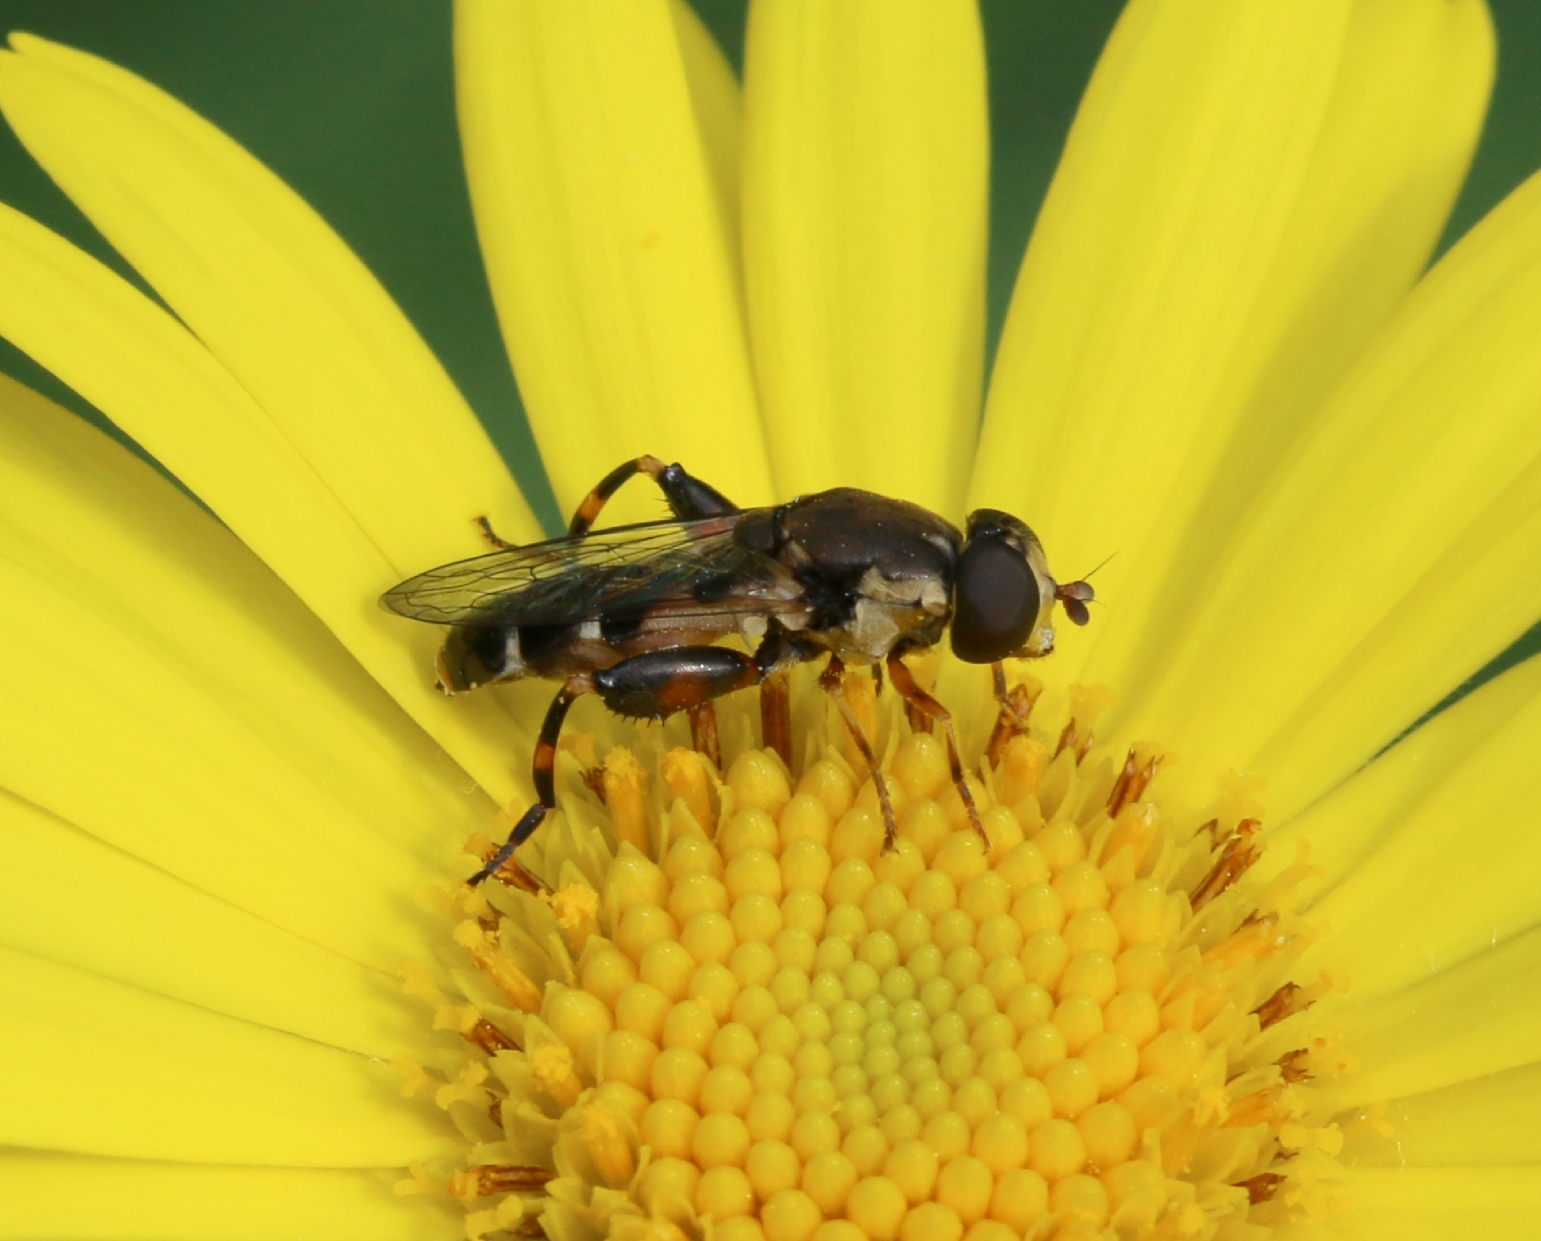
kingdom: Animalia
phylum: Arthropoda
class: Insecta
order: Diptera
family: Syrphidae
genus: Syritta
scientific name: Syritta pipiens
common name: Hover fly
